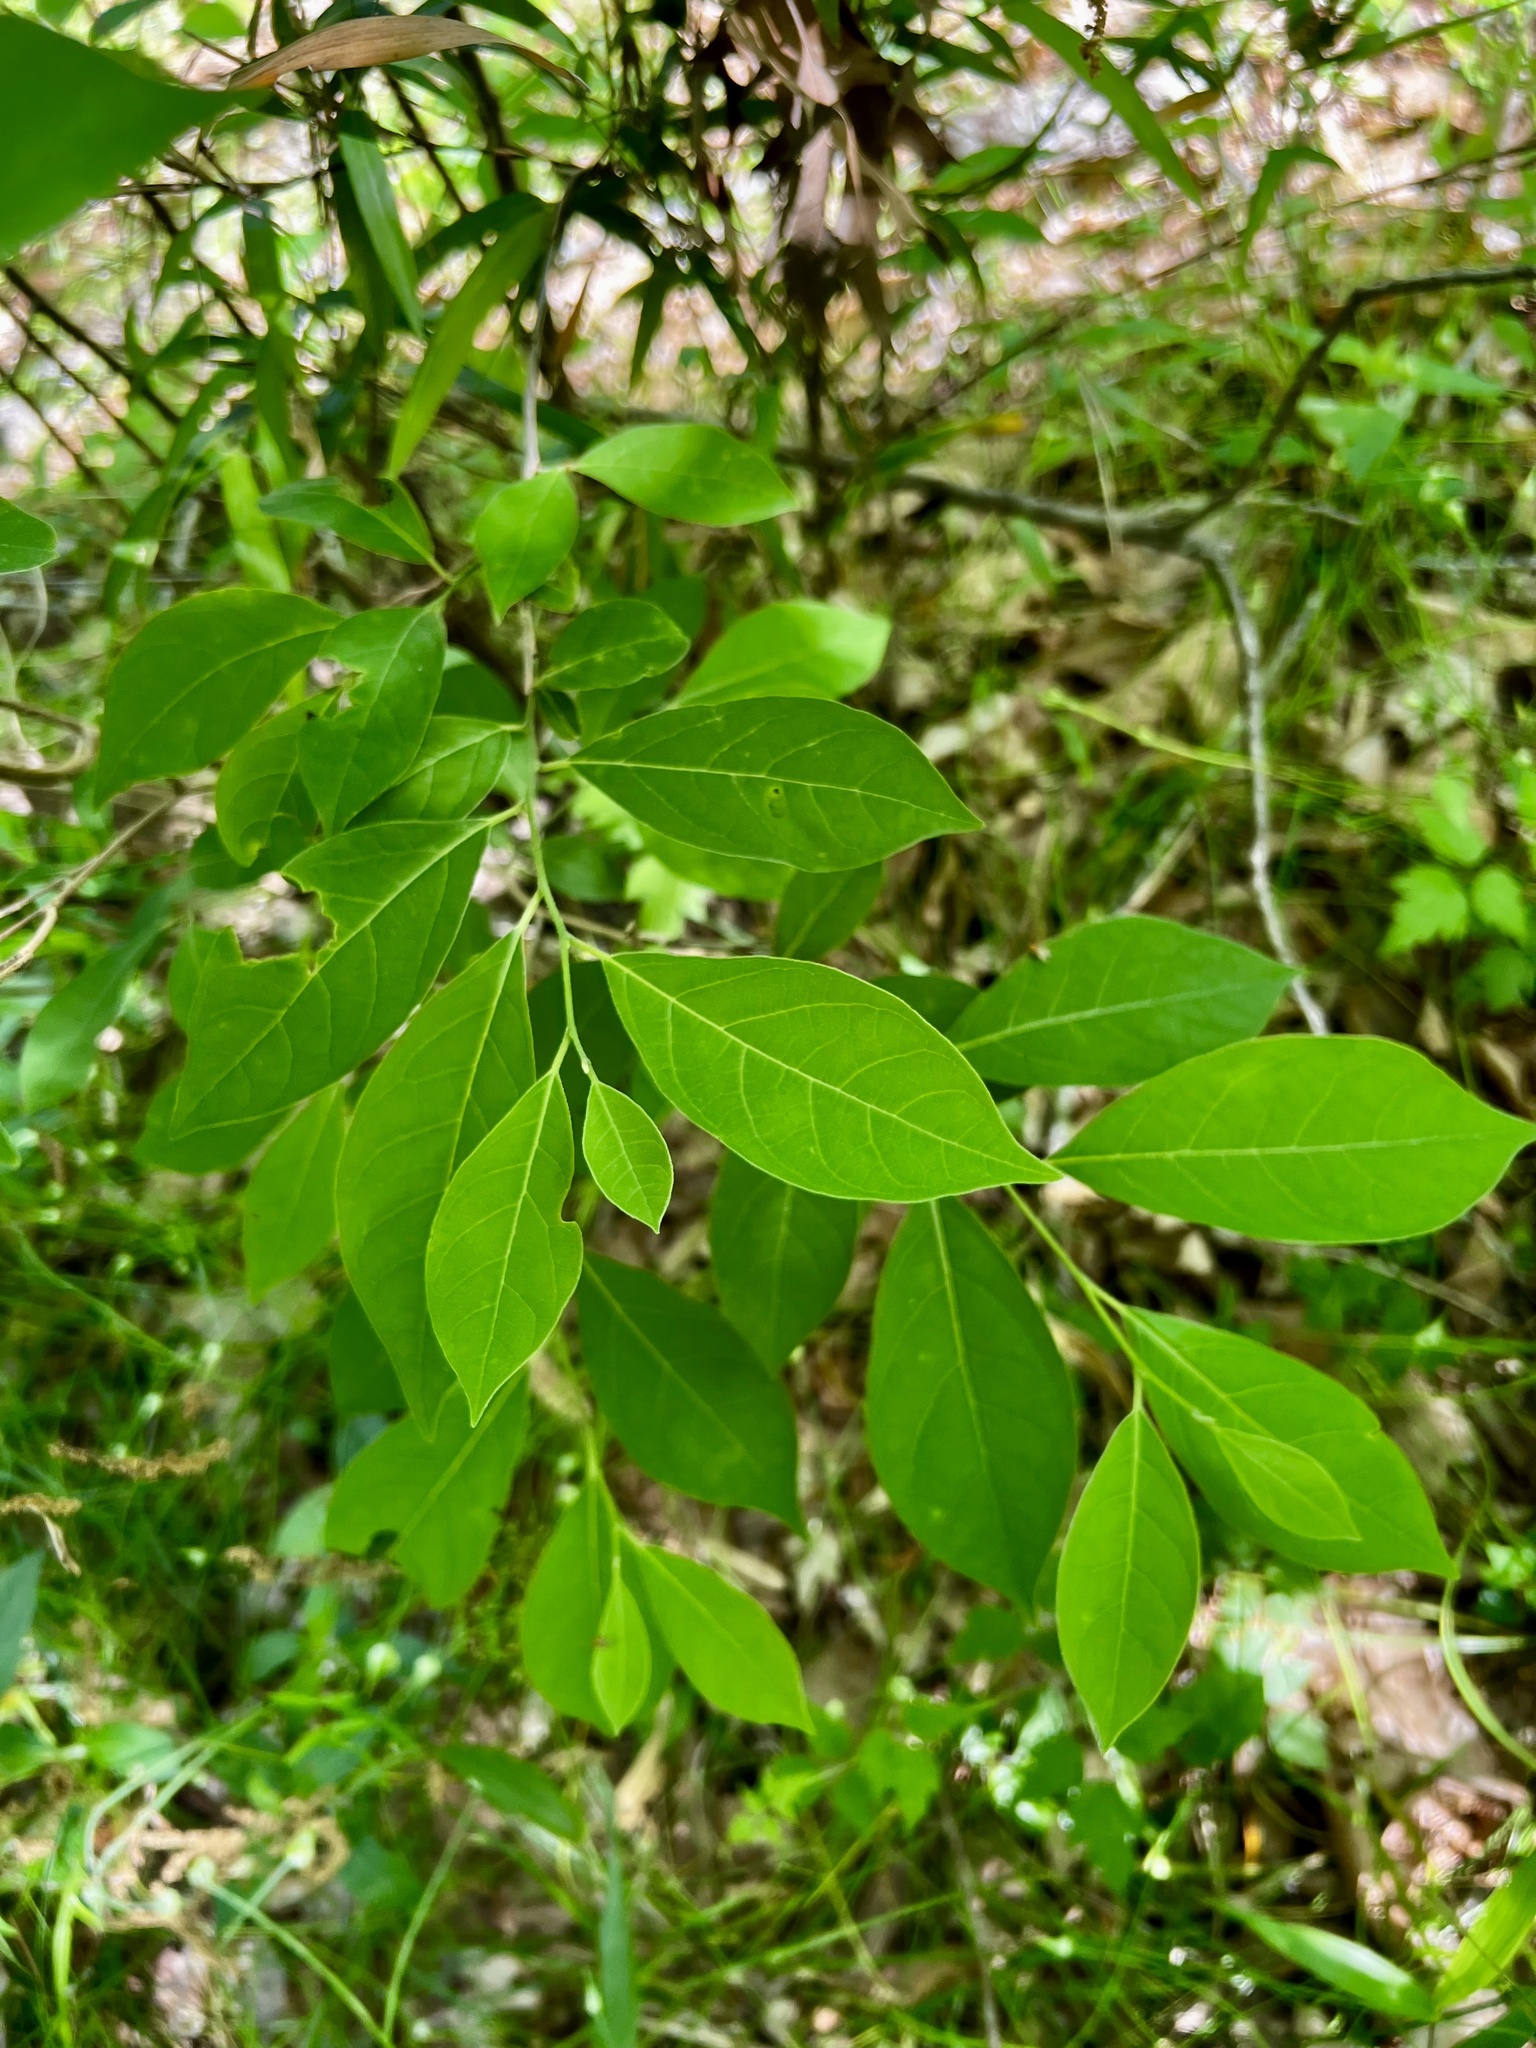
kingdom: Plantae
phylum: Tracheophyta
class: Magnoliopsida
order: Laurales
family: Lauraceae
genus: Lindera
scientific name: Lindera benzoin
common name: Spicebush
